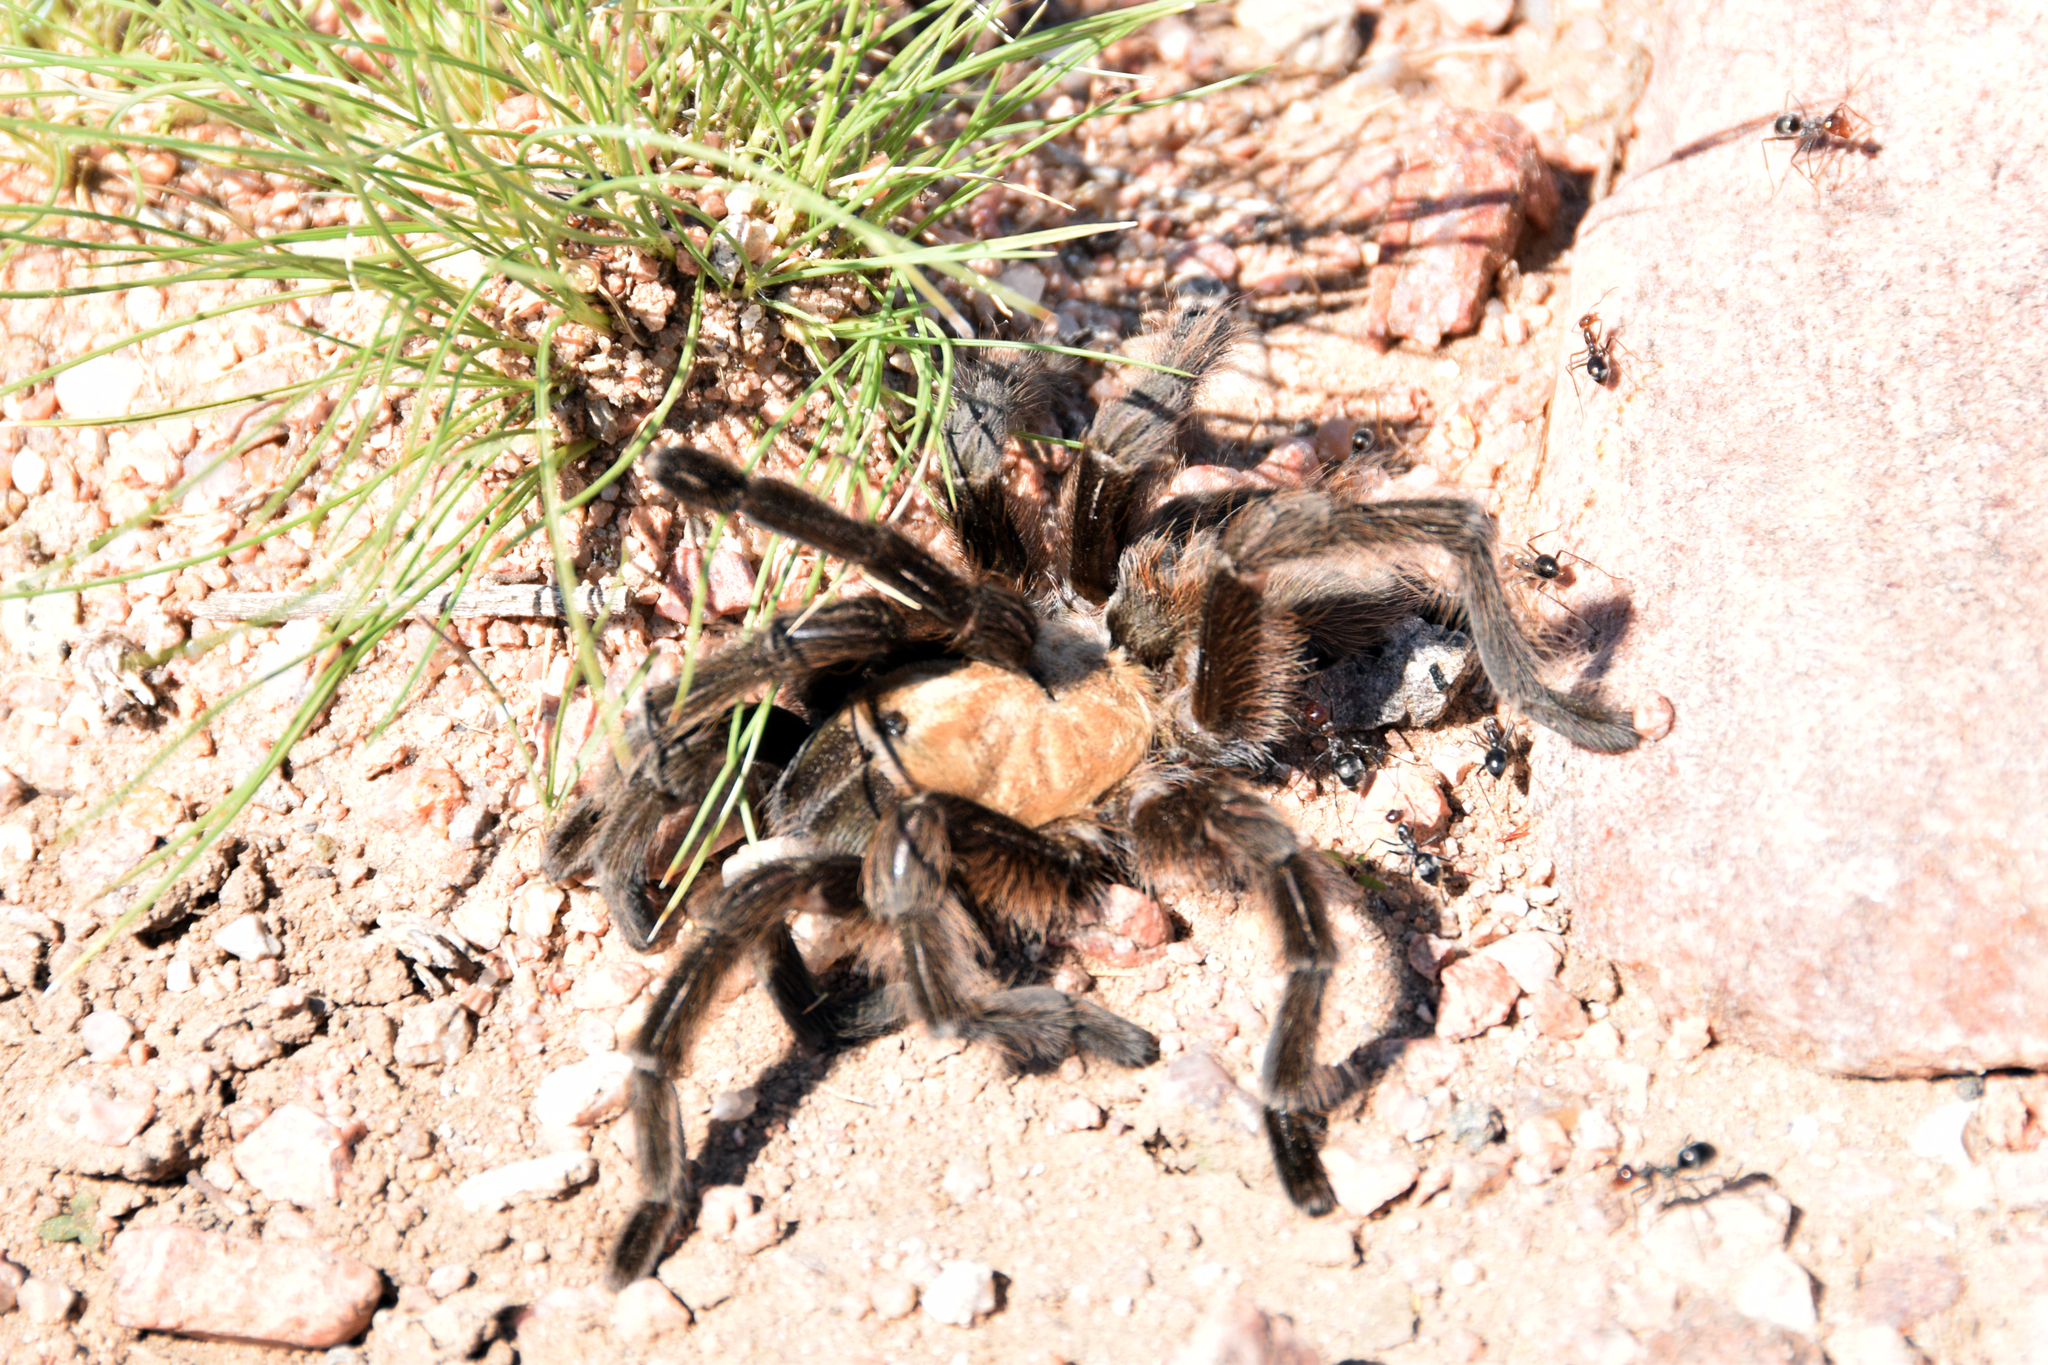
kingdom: Animalia
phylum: Arthropoda
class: Arachnida
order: Araneae
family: Theraphosidae
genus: Aphonopelma
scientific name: Aphonopelma hentzi
